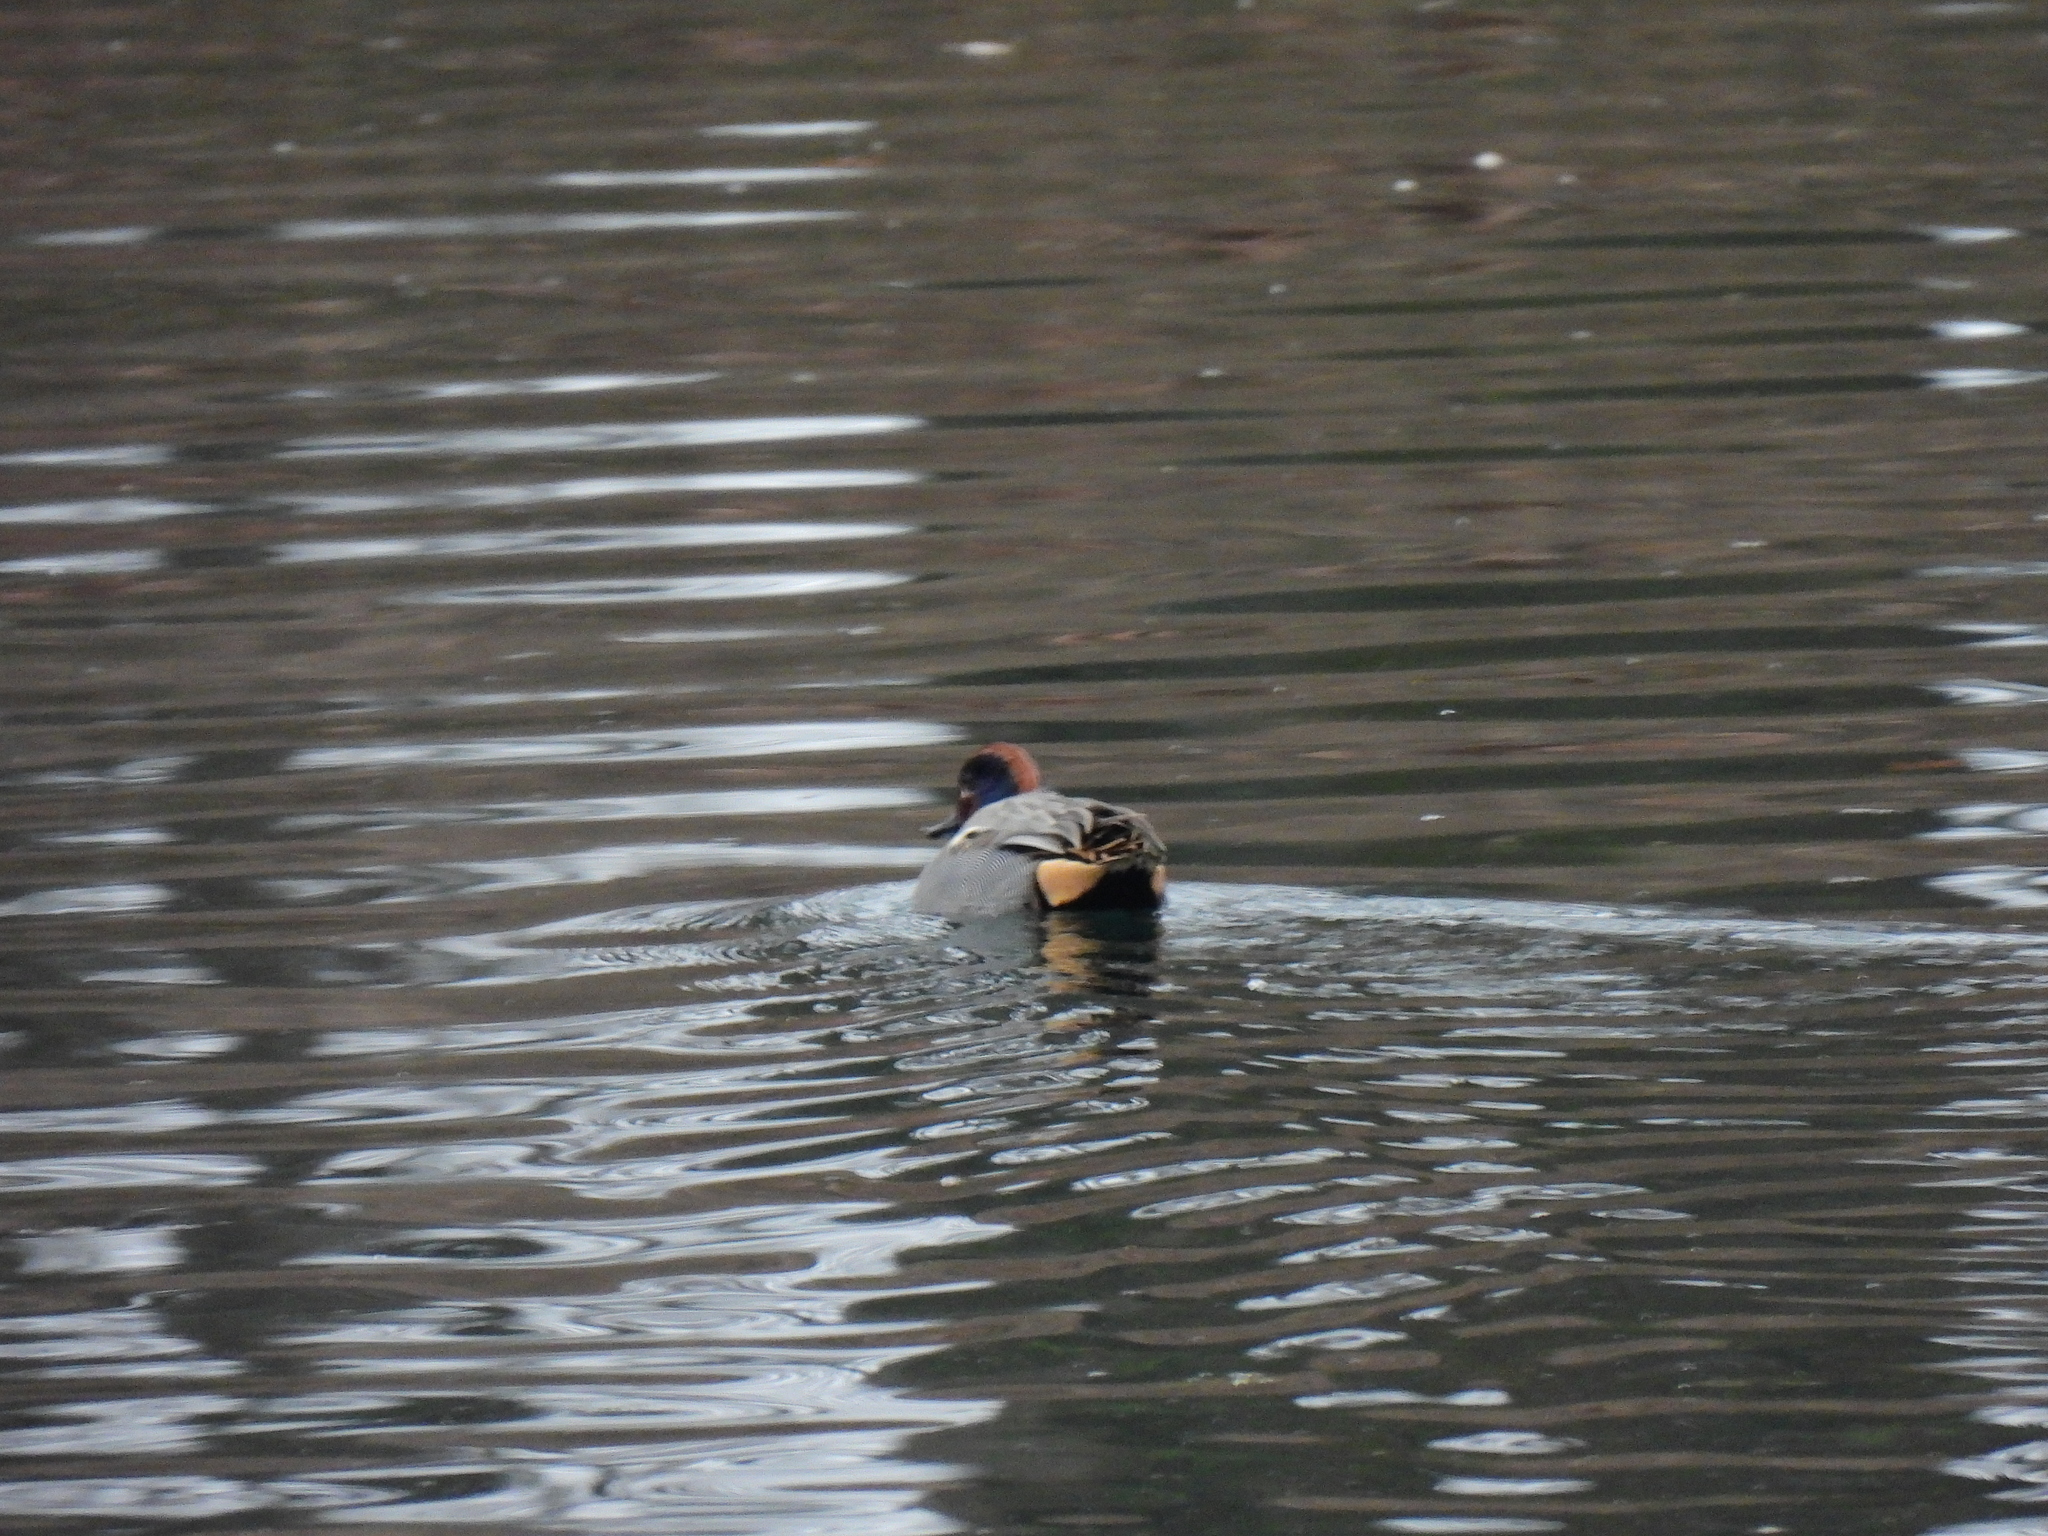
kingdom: Animalia
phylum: Chordata
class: Aves
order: Anseriformes
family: Anatidae
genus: Anas
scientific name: Anas crecca
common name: Eurasian teal
